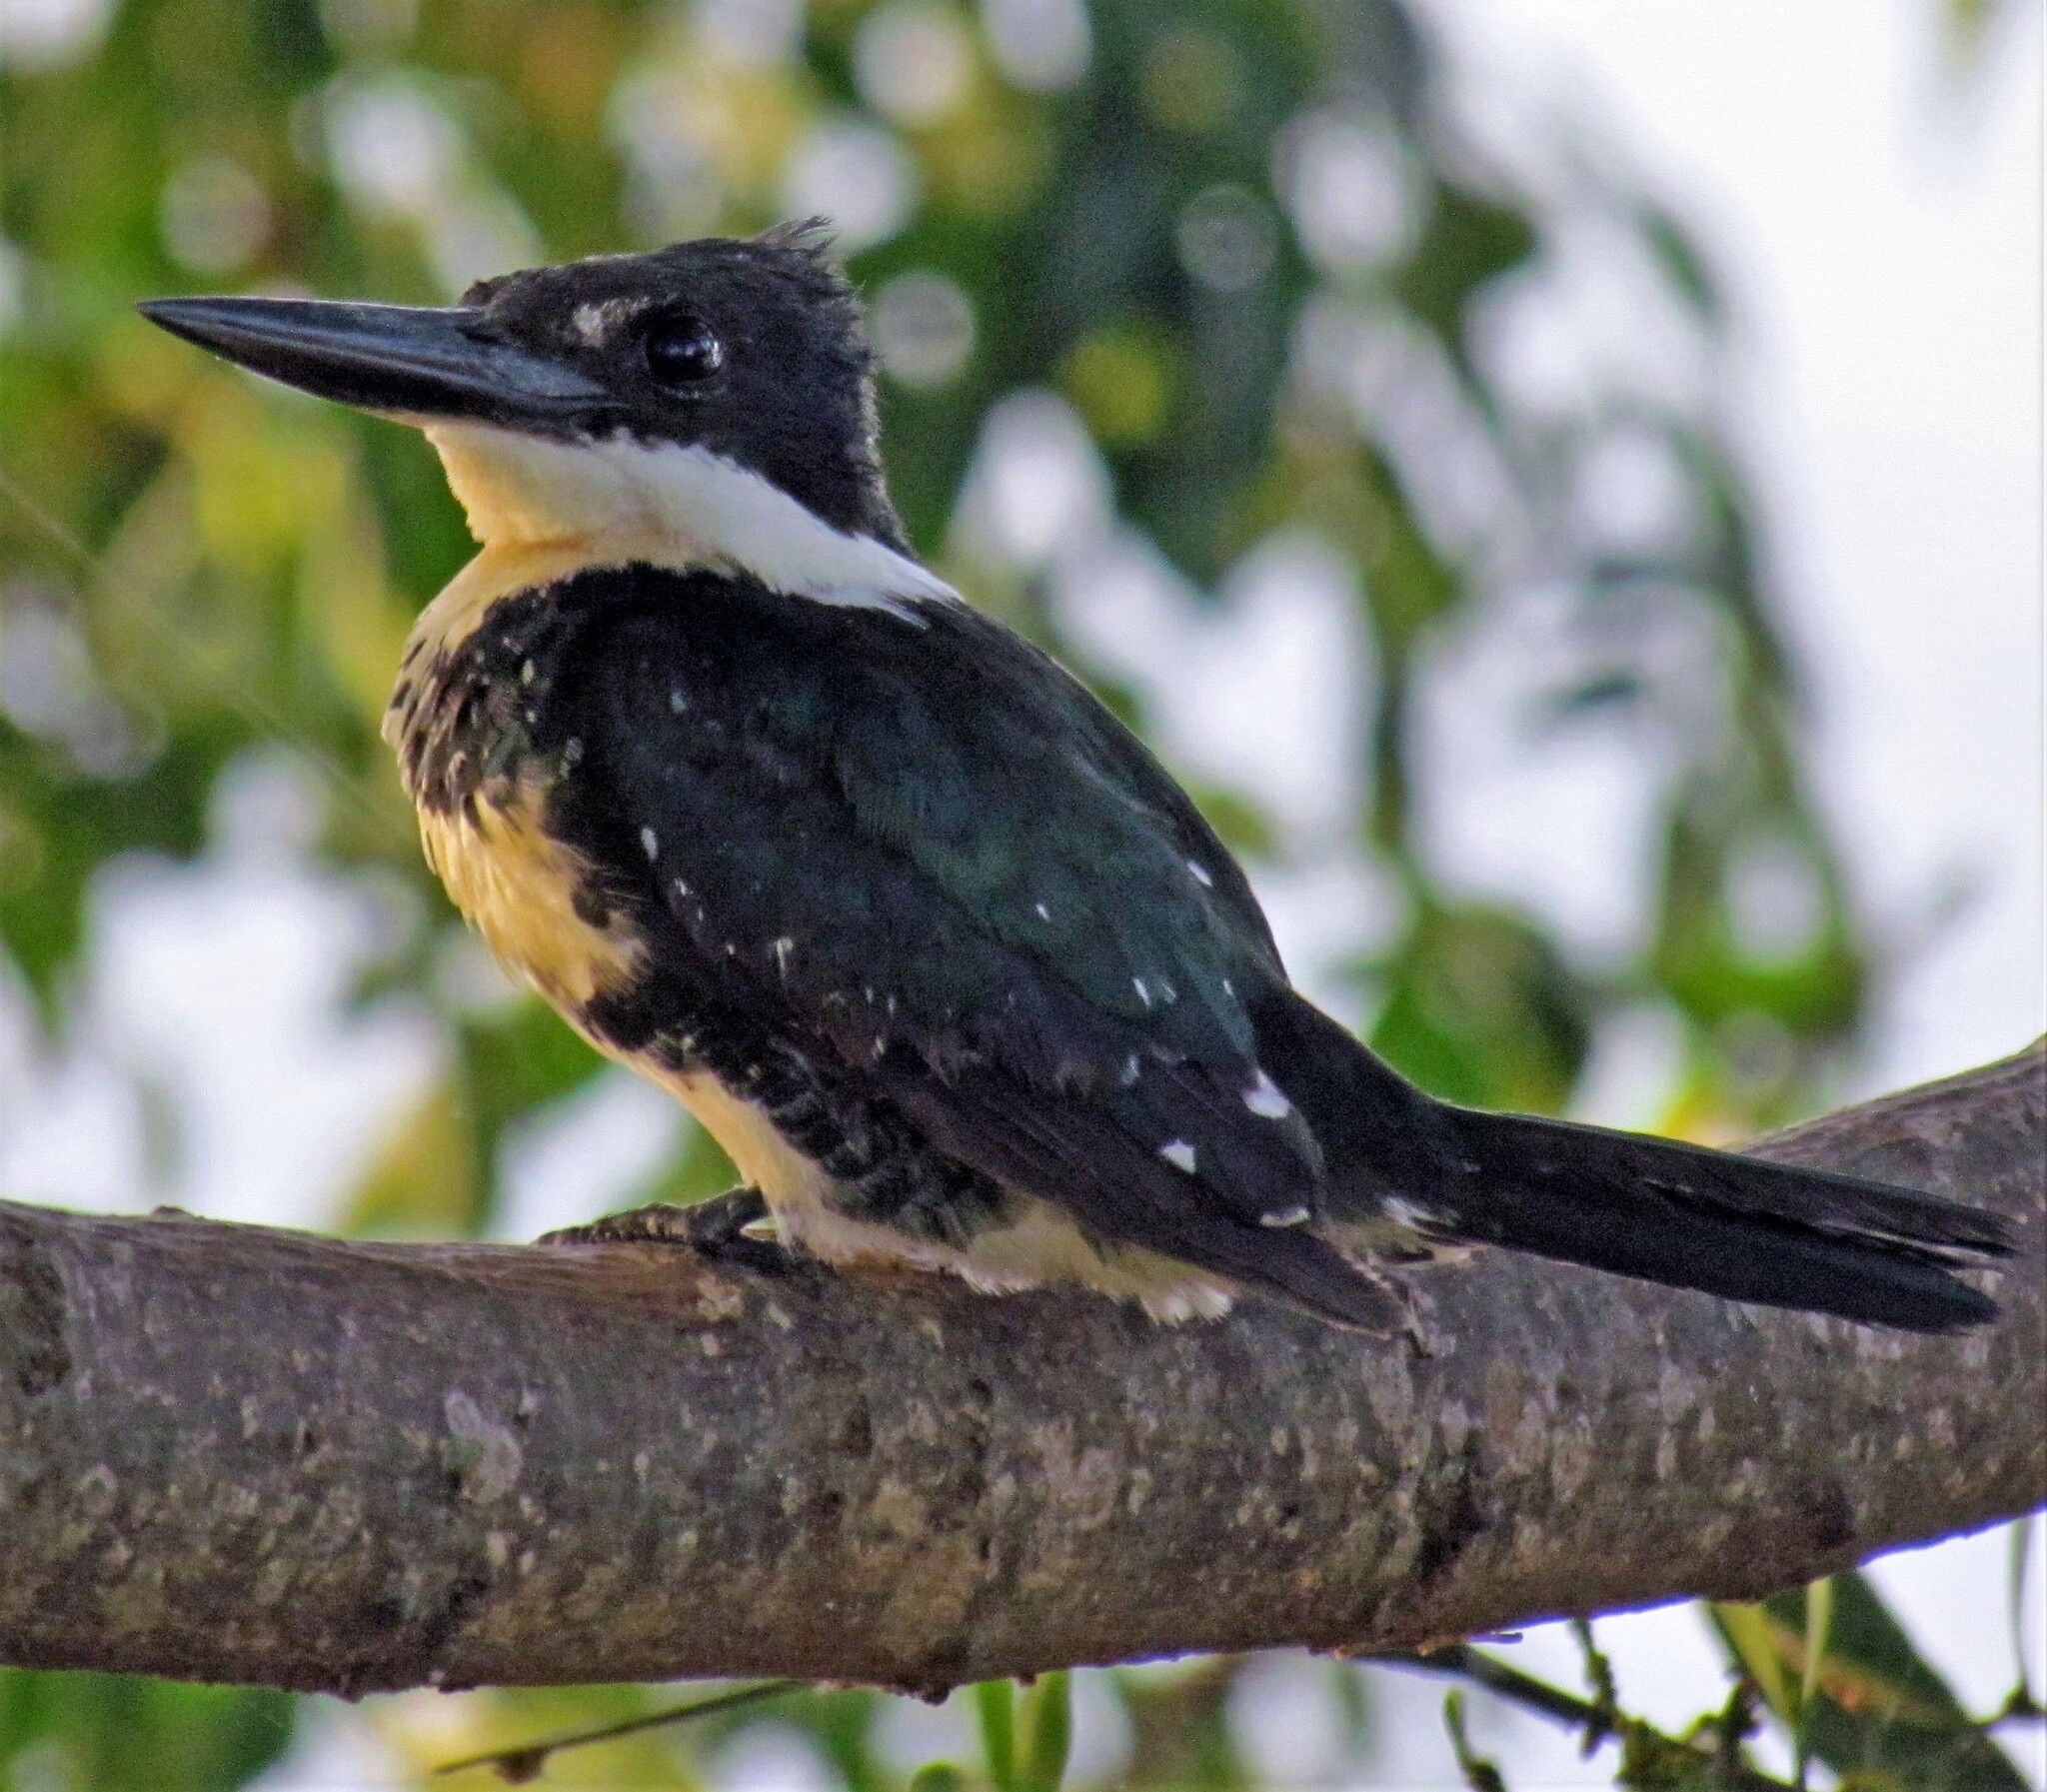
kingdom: Animalia
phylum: Chordata
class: Aves
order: Coraciiformes
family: Alcedinidae
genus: Chloroceryle
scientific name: Chloroceryle americana
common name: Green kingfisher
